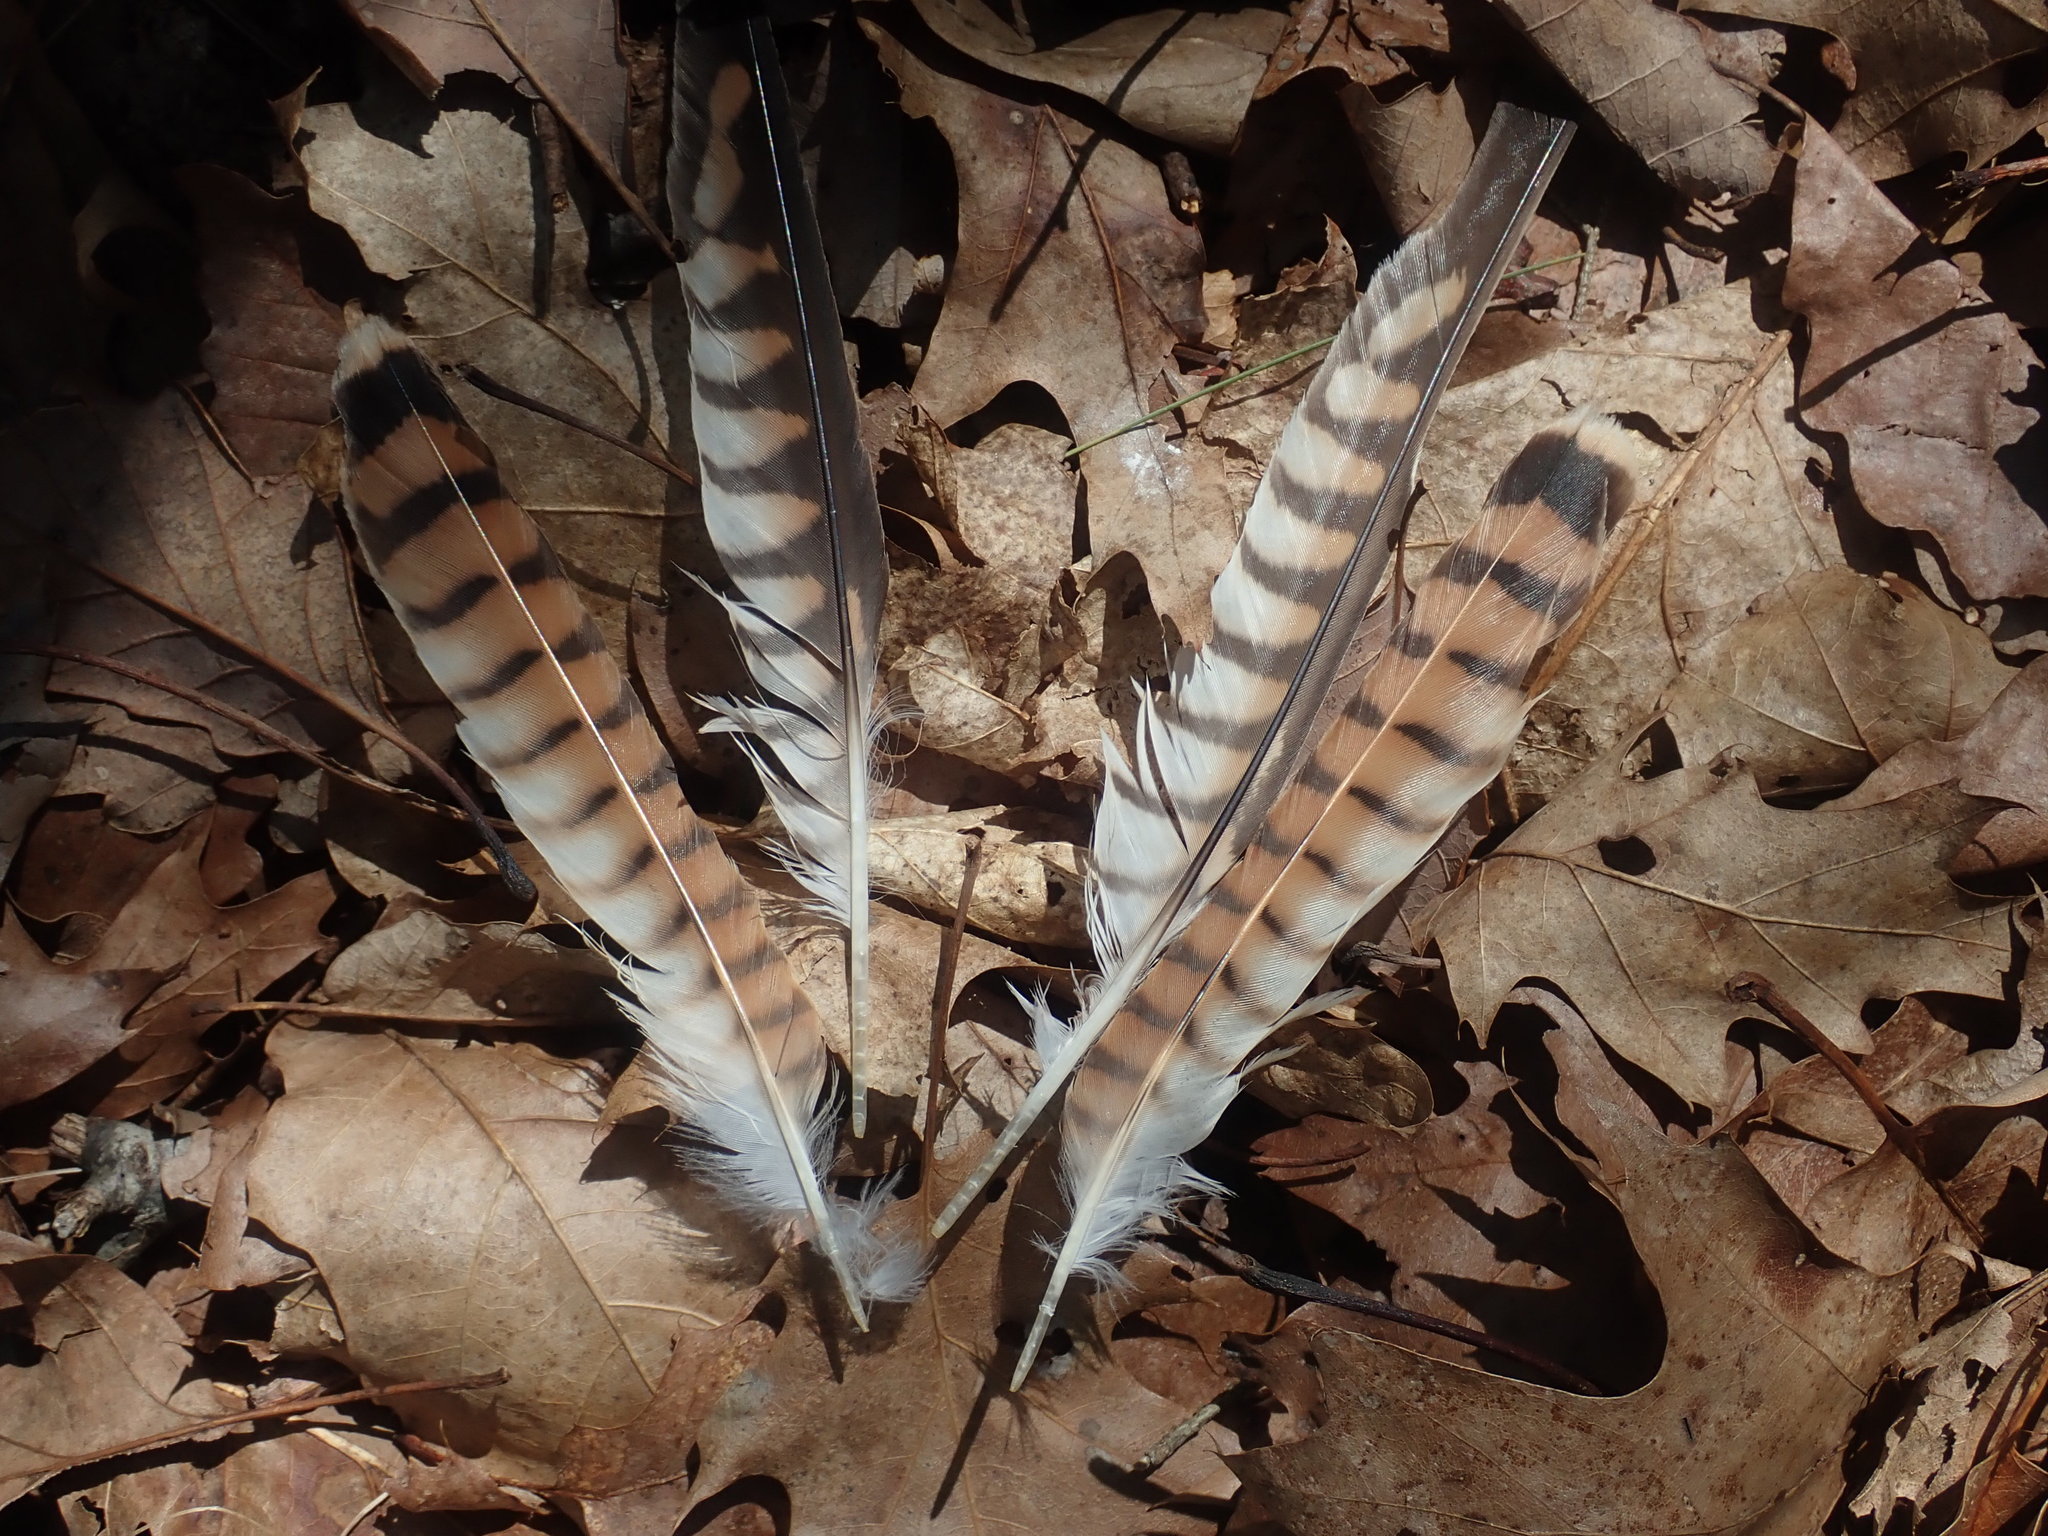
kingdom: Animalia
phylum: Chordata
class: Aves
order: Falconiformes
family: Falconidae
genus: Falco
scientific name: Falco sparverius
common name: American kestrel
